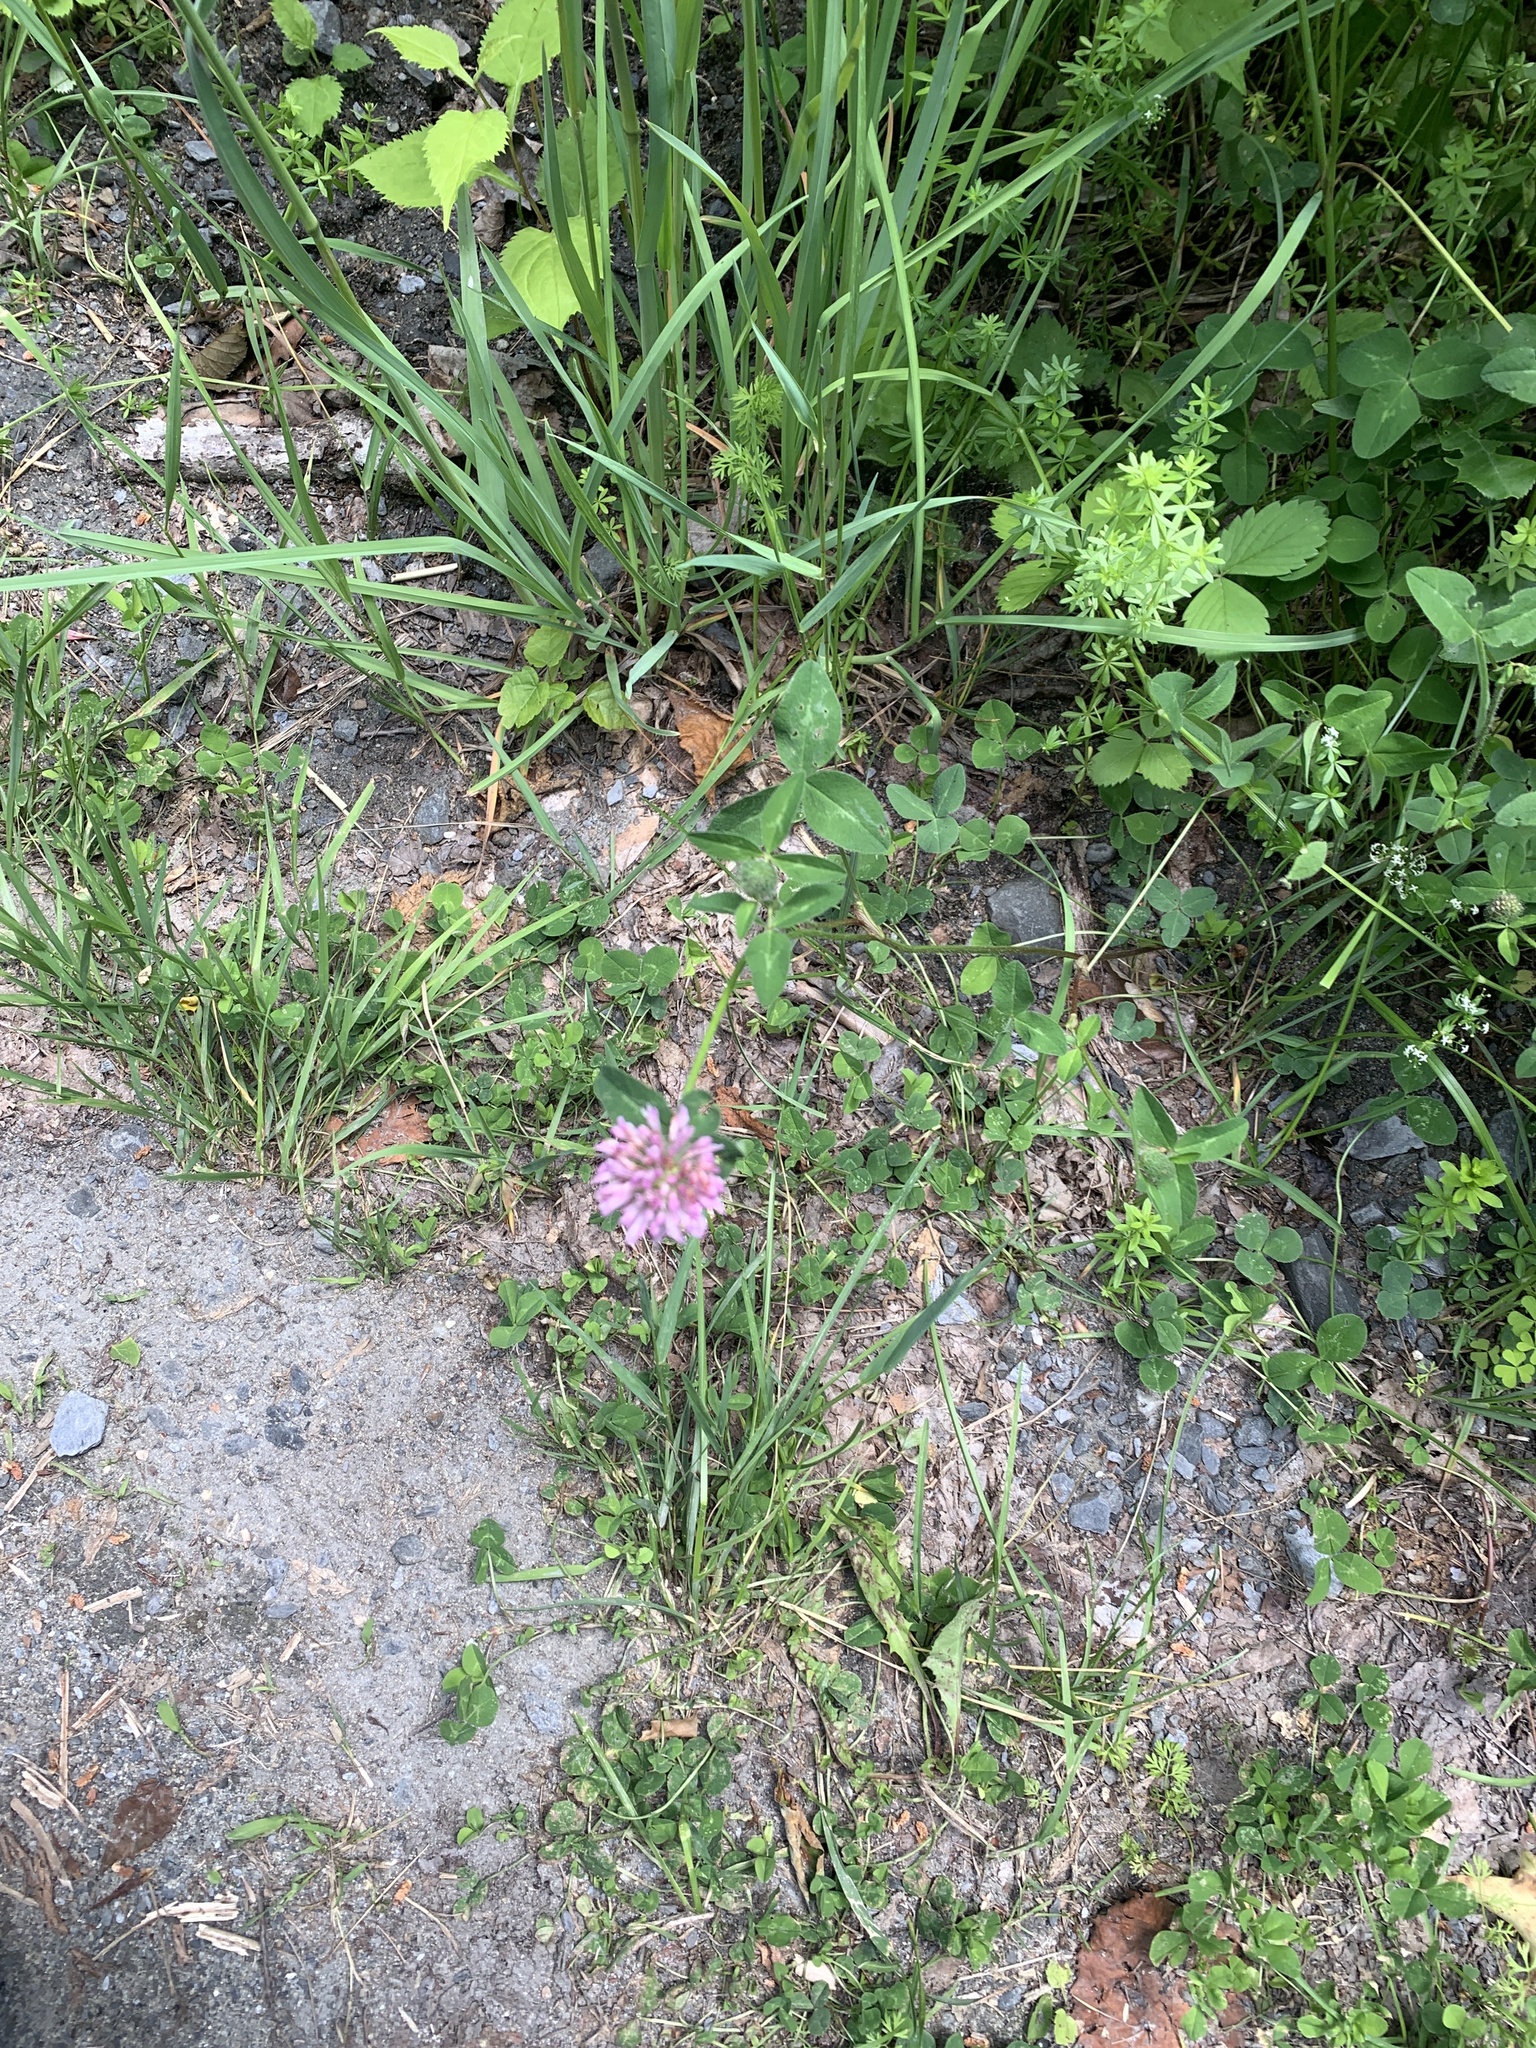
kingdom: Plantae
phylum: Tracheophyta
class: Magnoliopsida
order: Fabales
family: Fabaceae
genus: Trifolium
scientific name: Trifolium pratense
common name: Red clover
